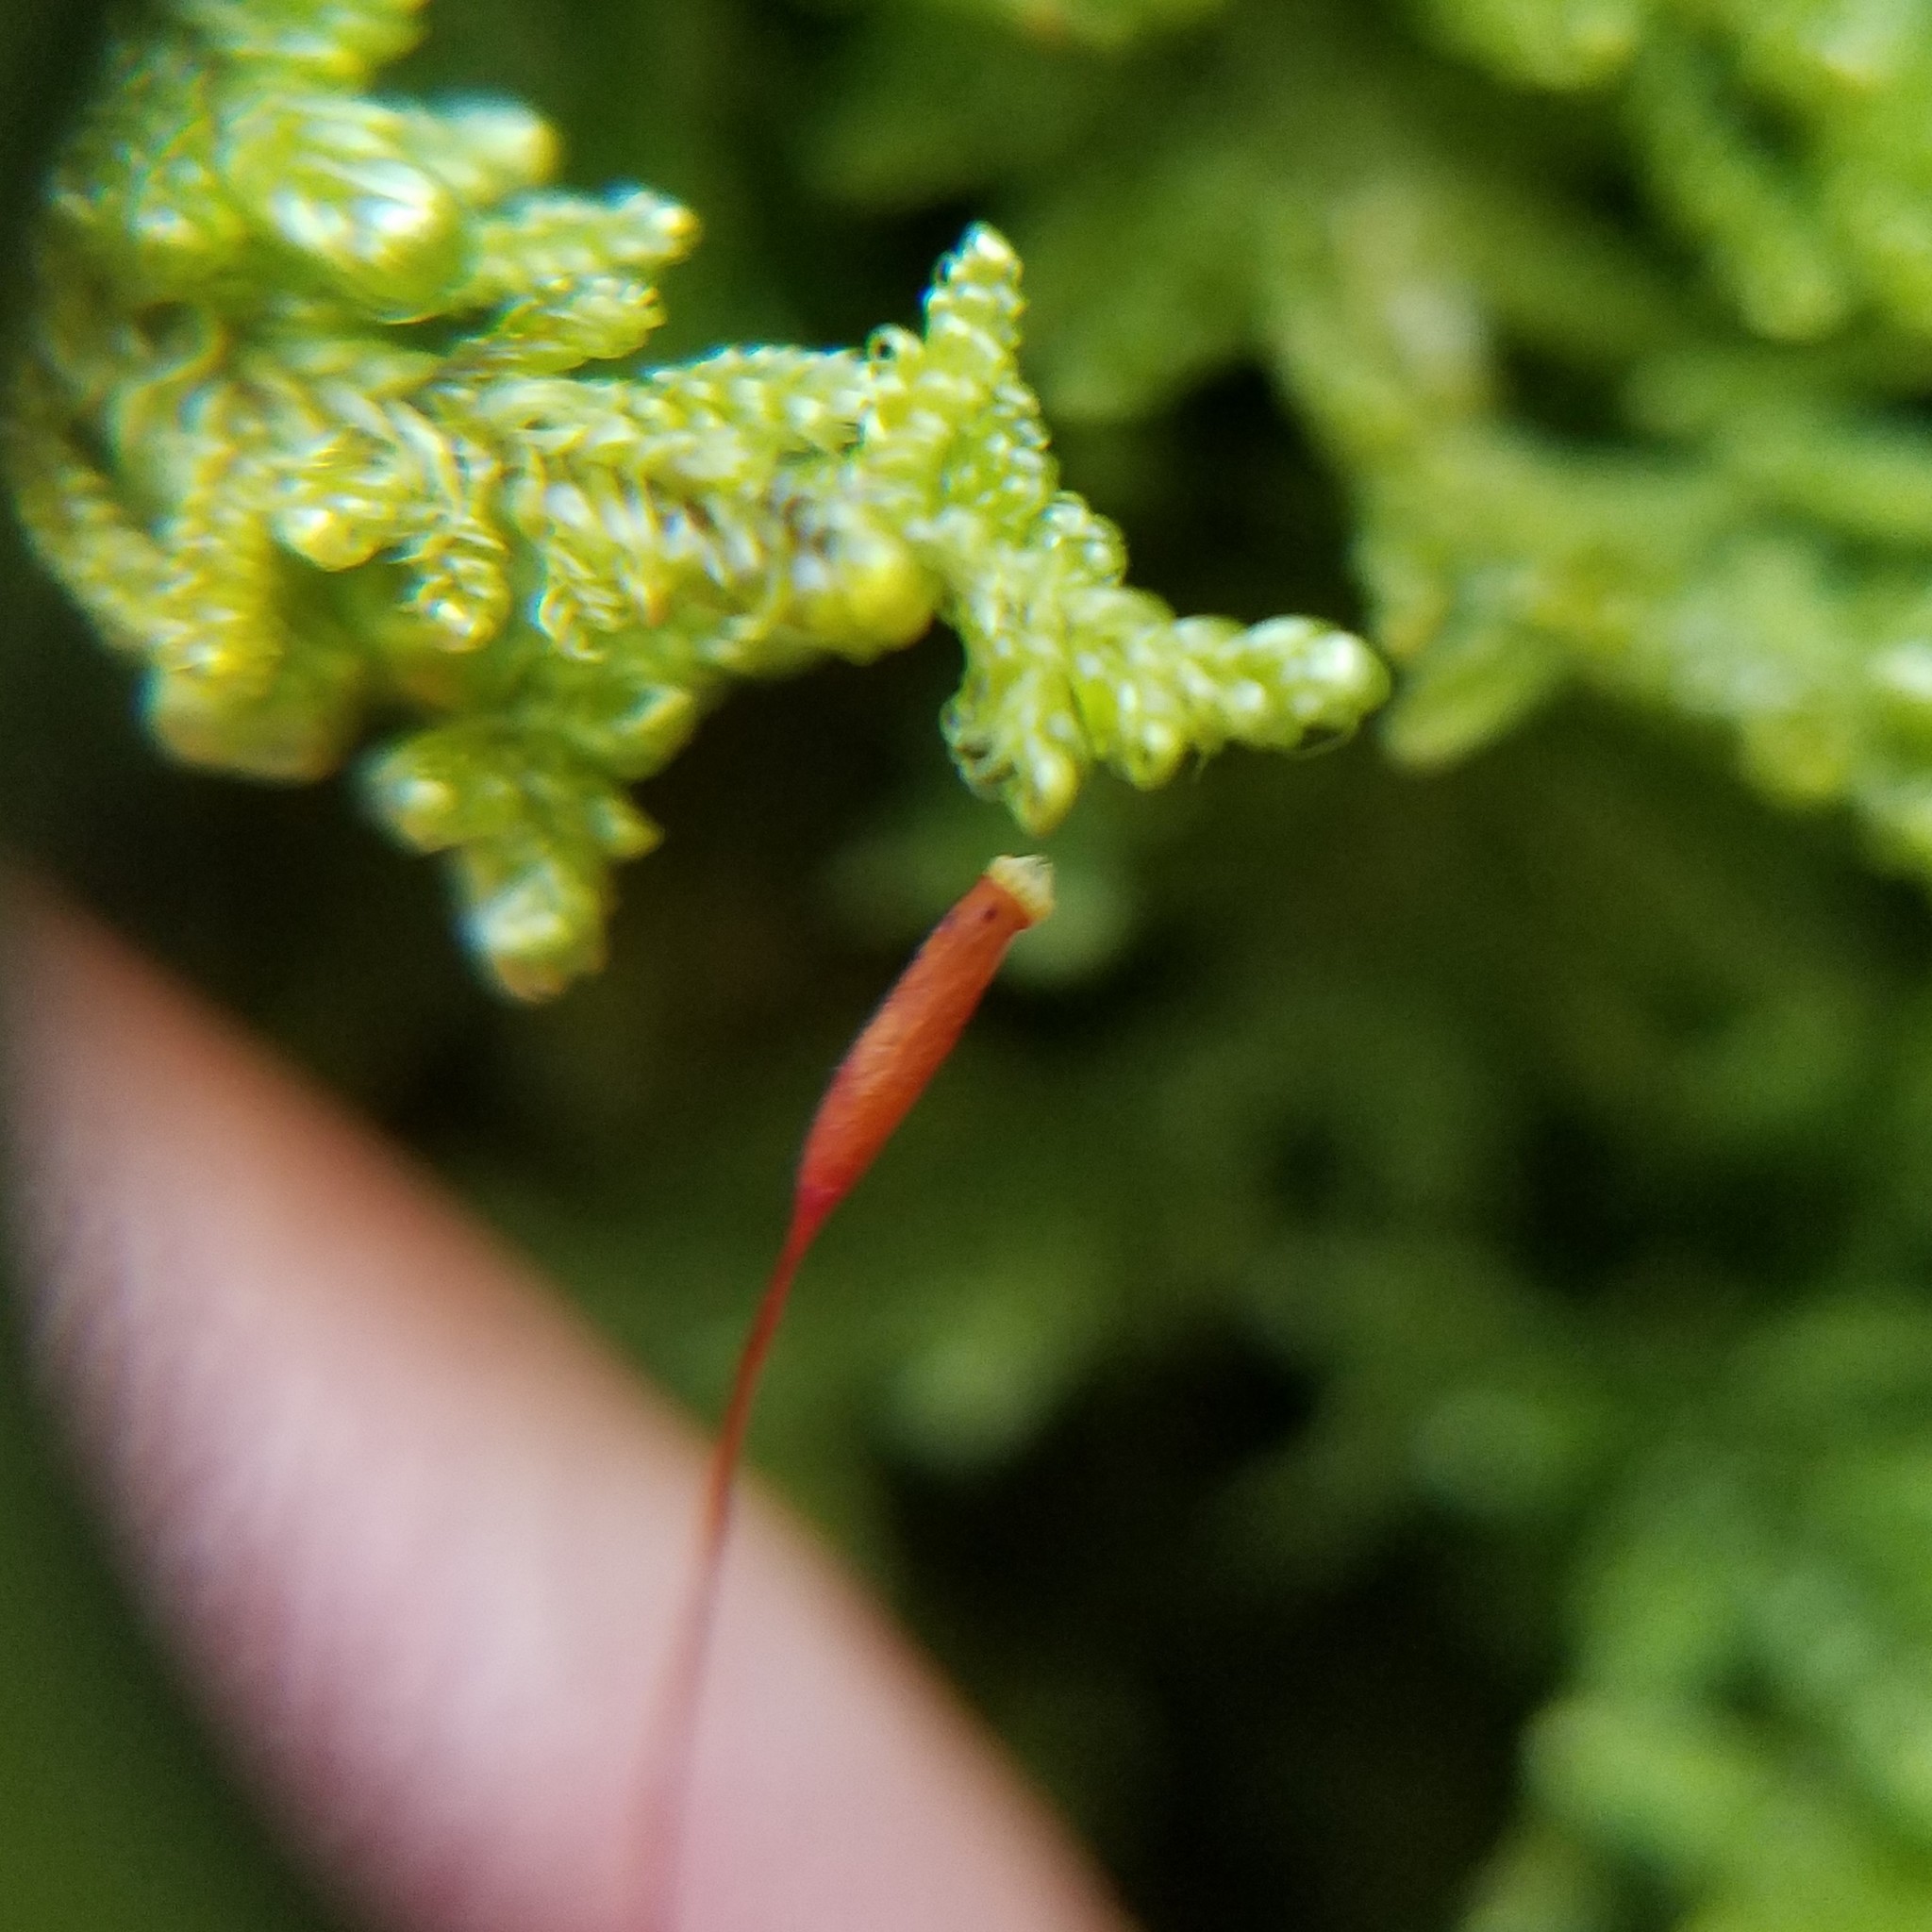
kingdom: Plantae
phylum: Bryophyta
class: Bryopsida
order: Hypnales
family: Callicladiaceae
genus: Callicladium
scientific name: Callicladium imponens
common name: Brocade moss
